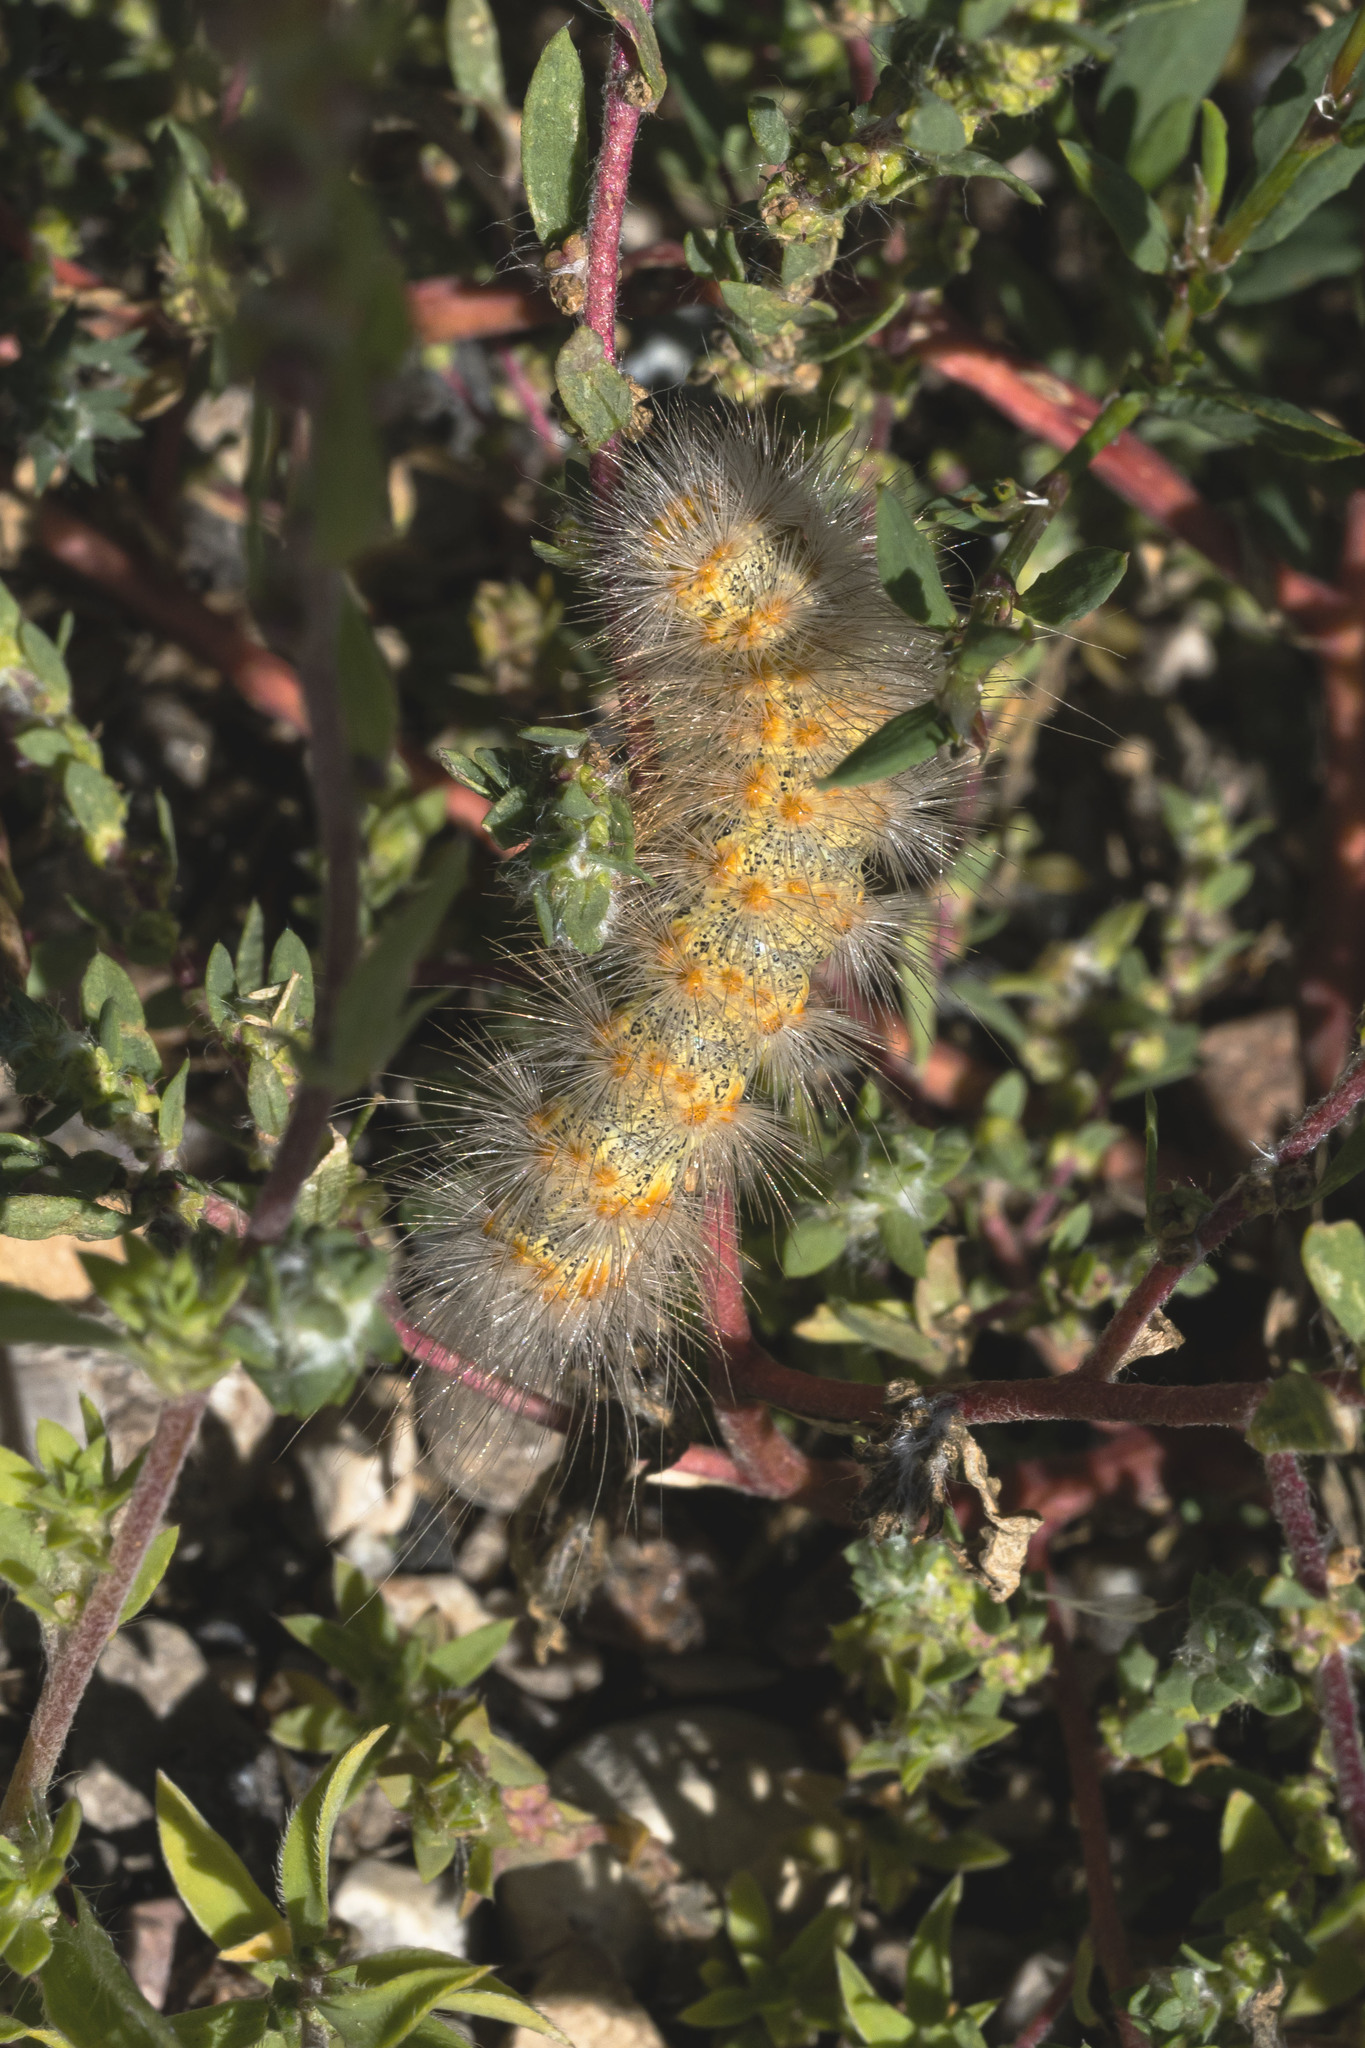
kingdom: Animalia
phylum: Arthropoda
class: Insecta
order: Lepidoptera
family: Erebidae
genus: Estigmene
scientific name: Estigmene acrea
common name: Salt marsh moth
